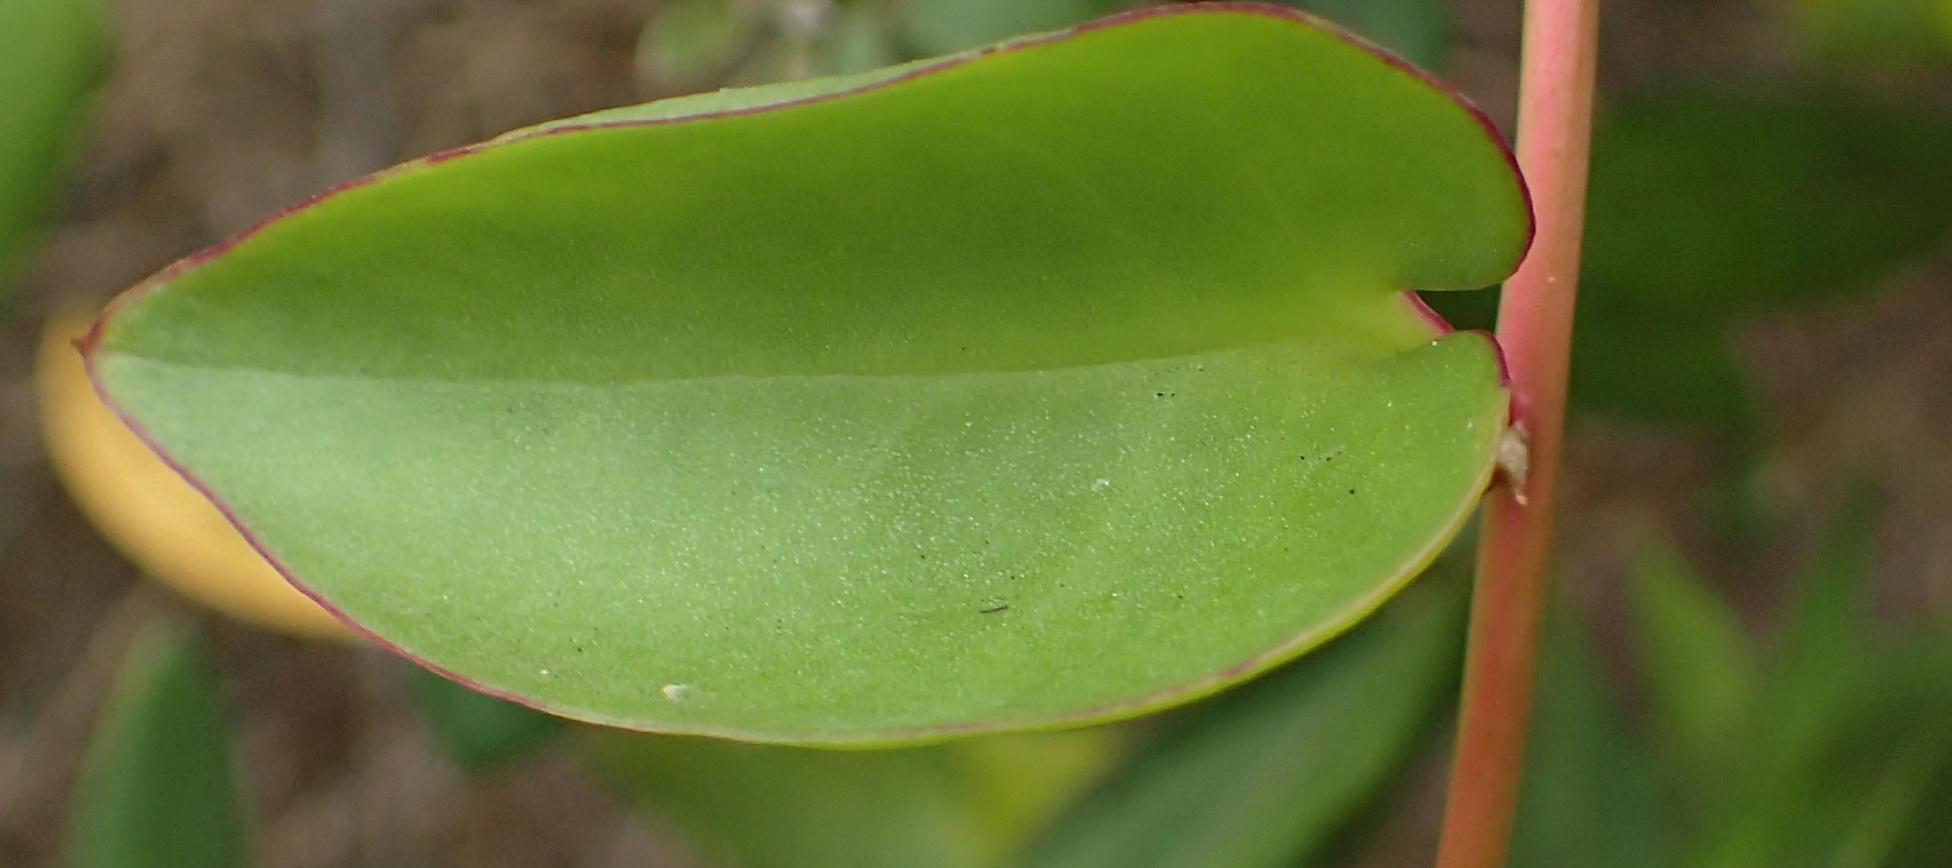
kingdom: Plantae
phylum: Tracheophyta
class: Magnoliopsida
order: Caryophyllales
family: Basellaceae
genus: Anredera
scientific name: Anredera cordifolia
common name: Heartleaf madeiravine
